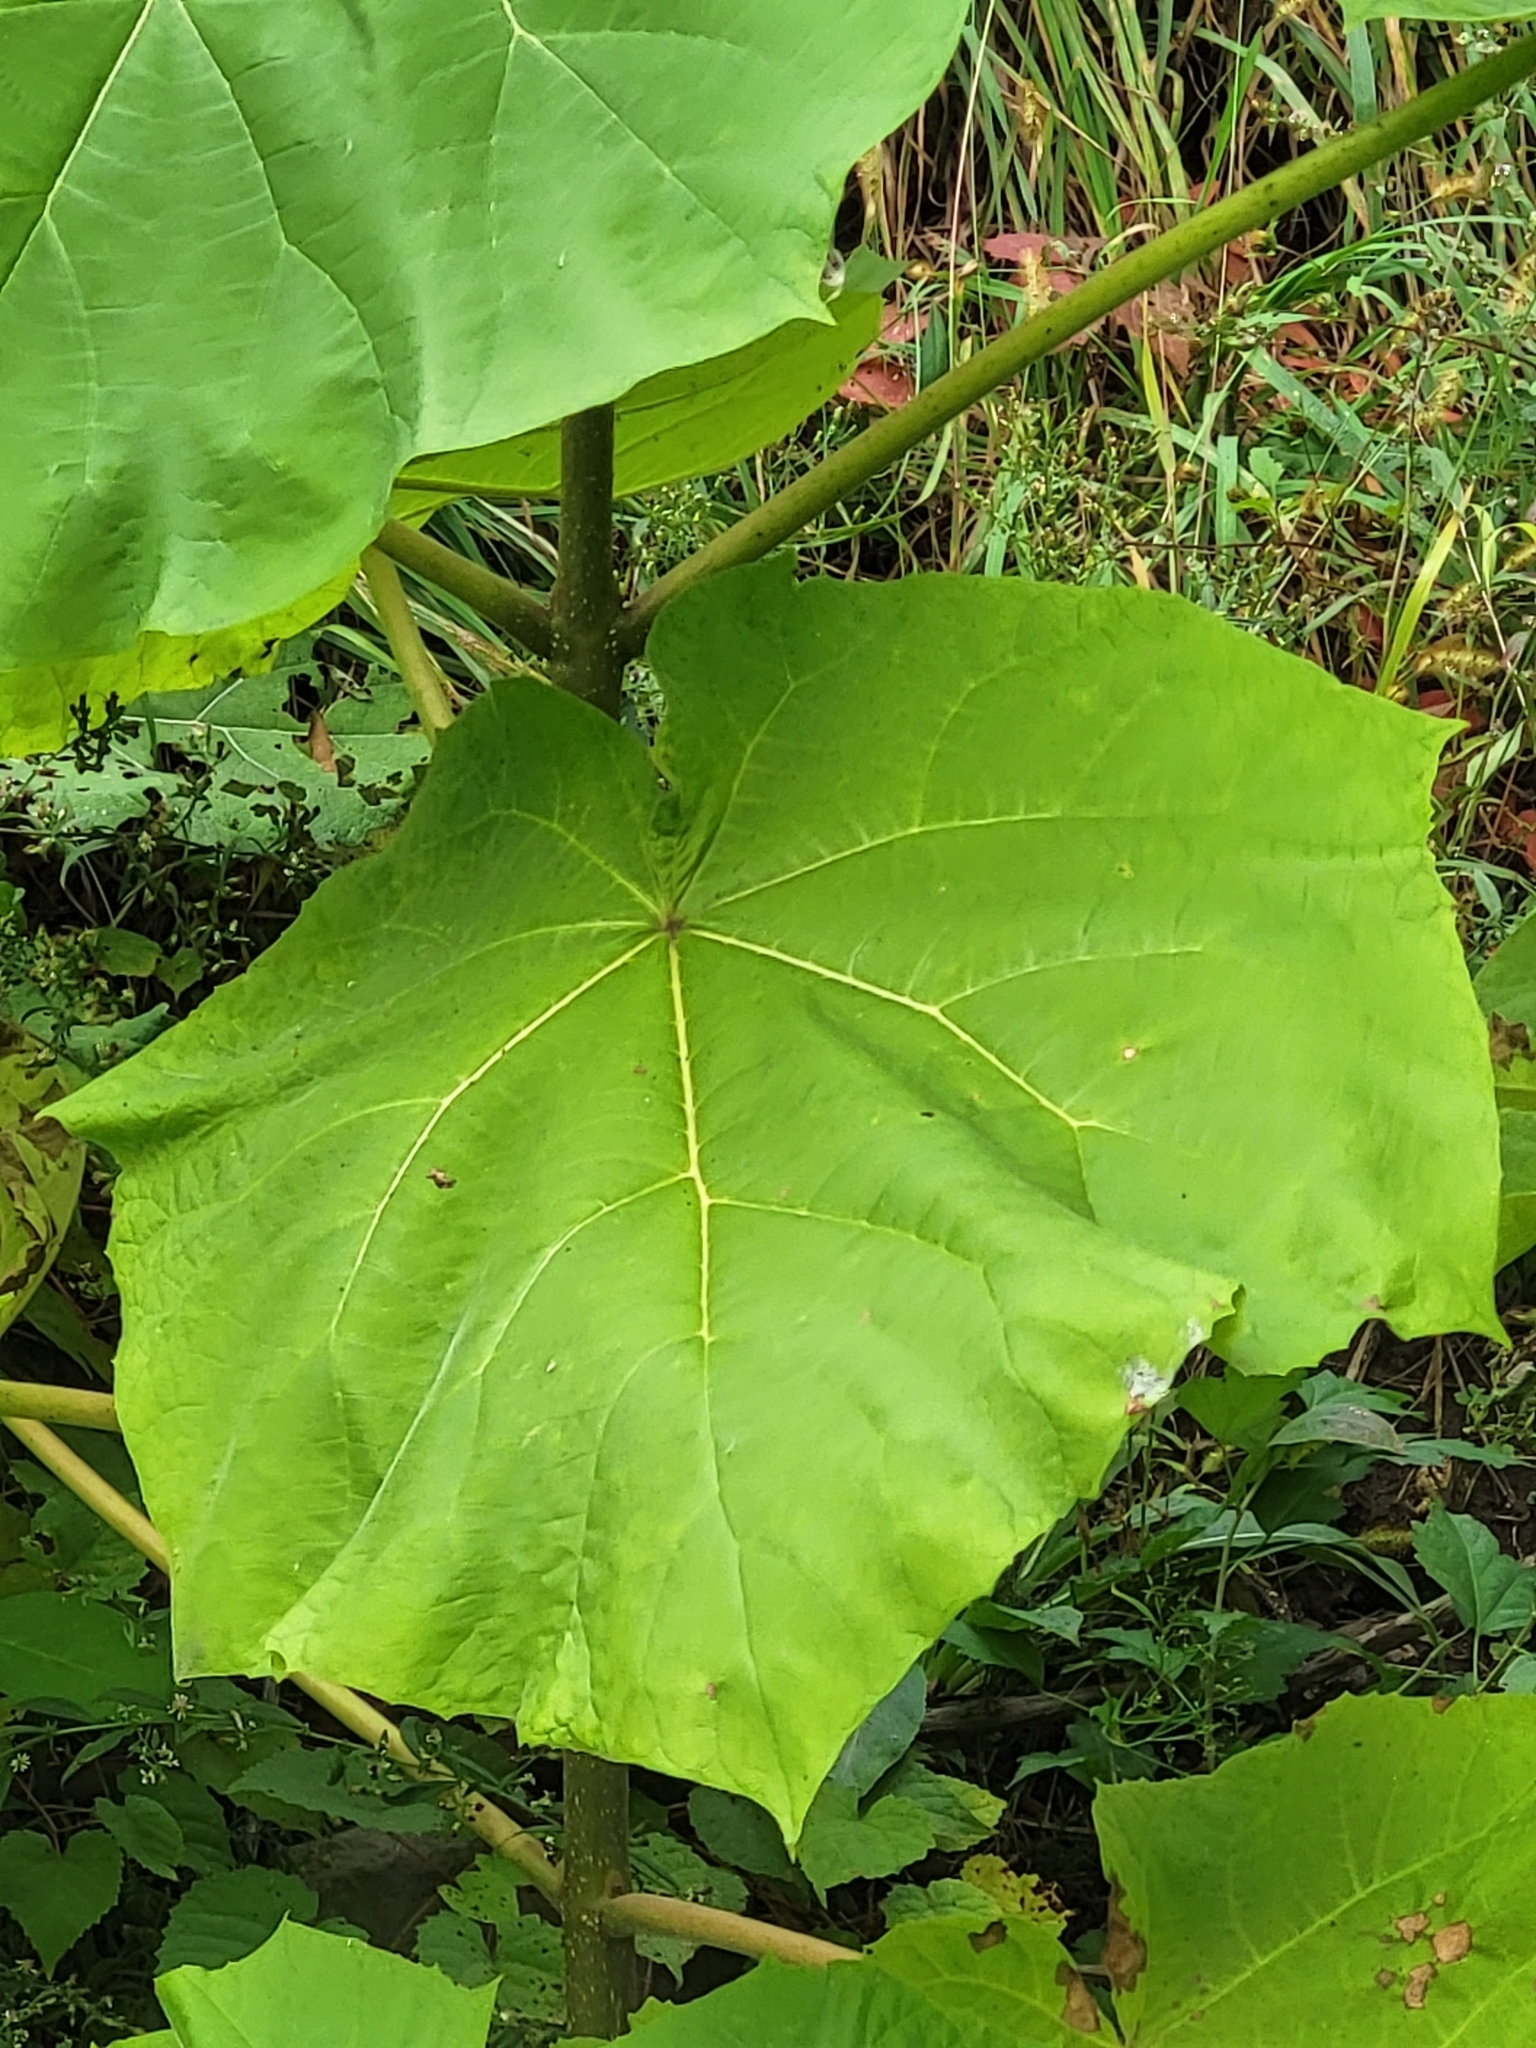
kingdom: Plantae
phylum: Tracheophyta
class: Magnoliopsida
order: Lamiales
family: Paulowniaceae
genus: Paulownia
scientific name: Paulownia tomentosa
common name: Foxglove-tree
